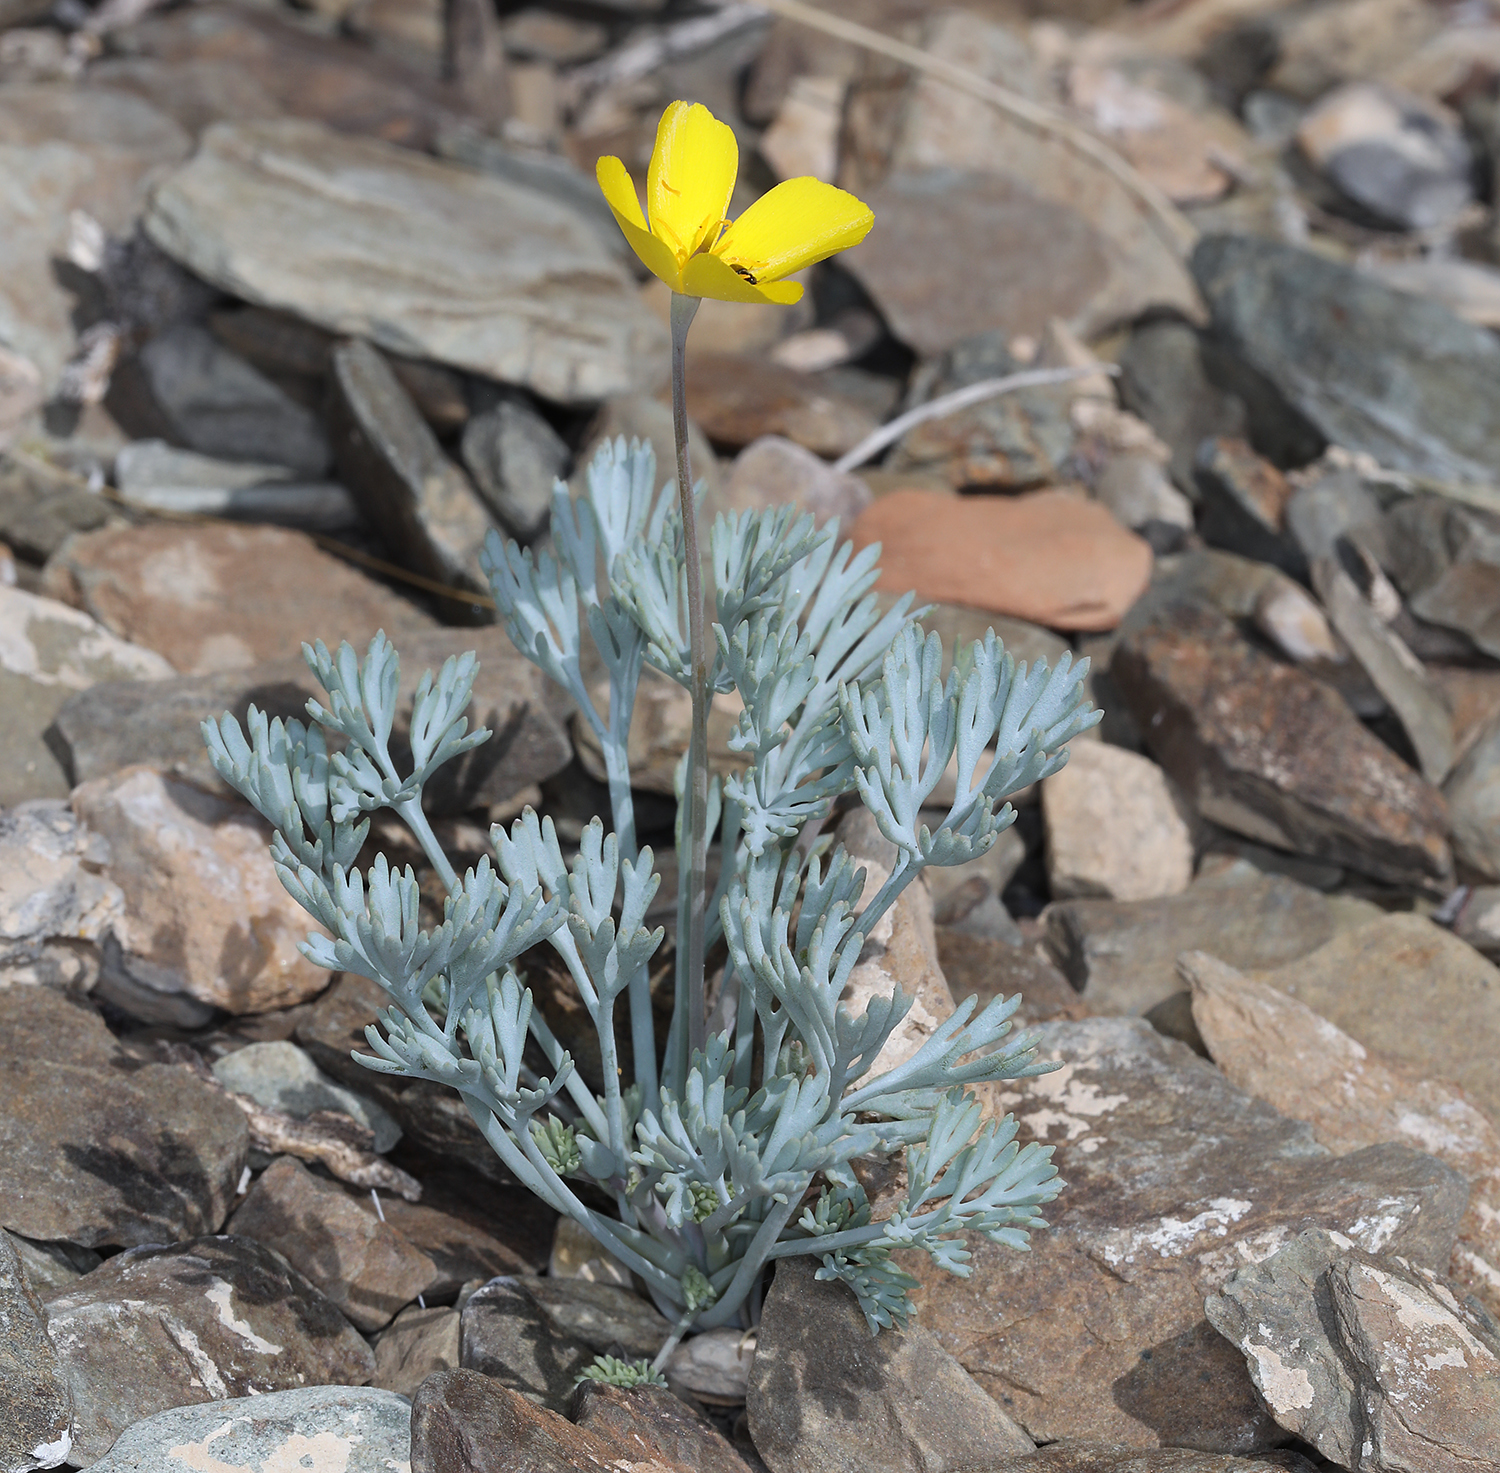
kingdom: Plantae
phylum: Tracheophyta
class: Magnoliopsida
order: Ranunculales
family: Papaveraceae
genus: Eschscholzia
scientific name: Eschscholzia minutiflora
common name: Small-flower california-poppy
